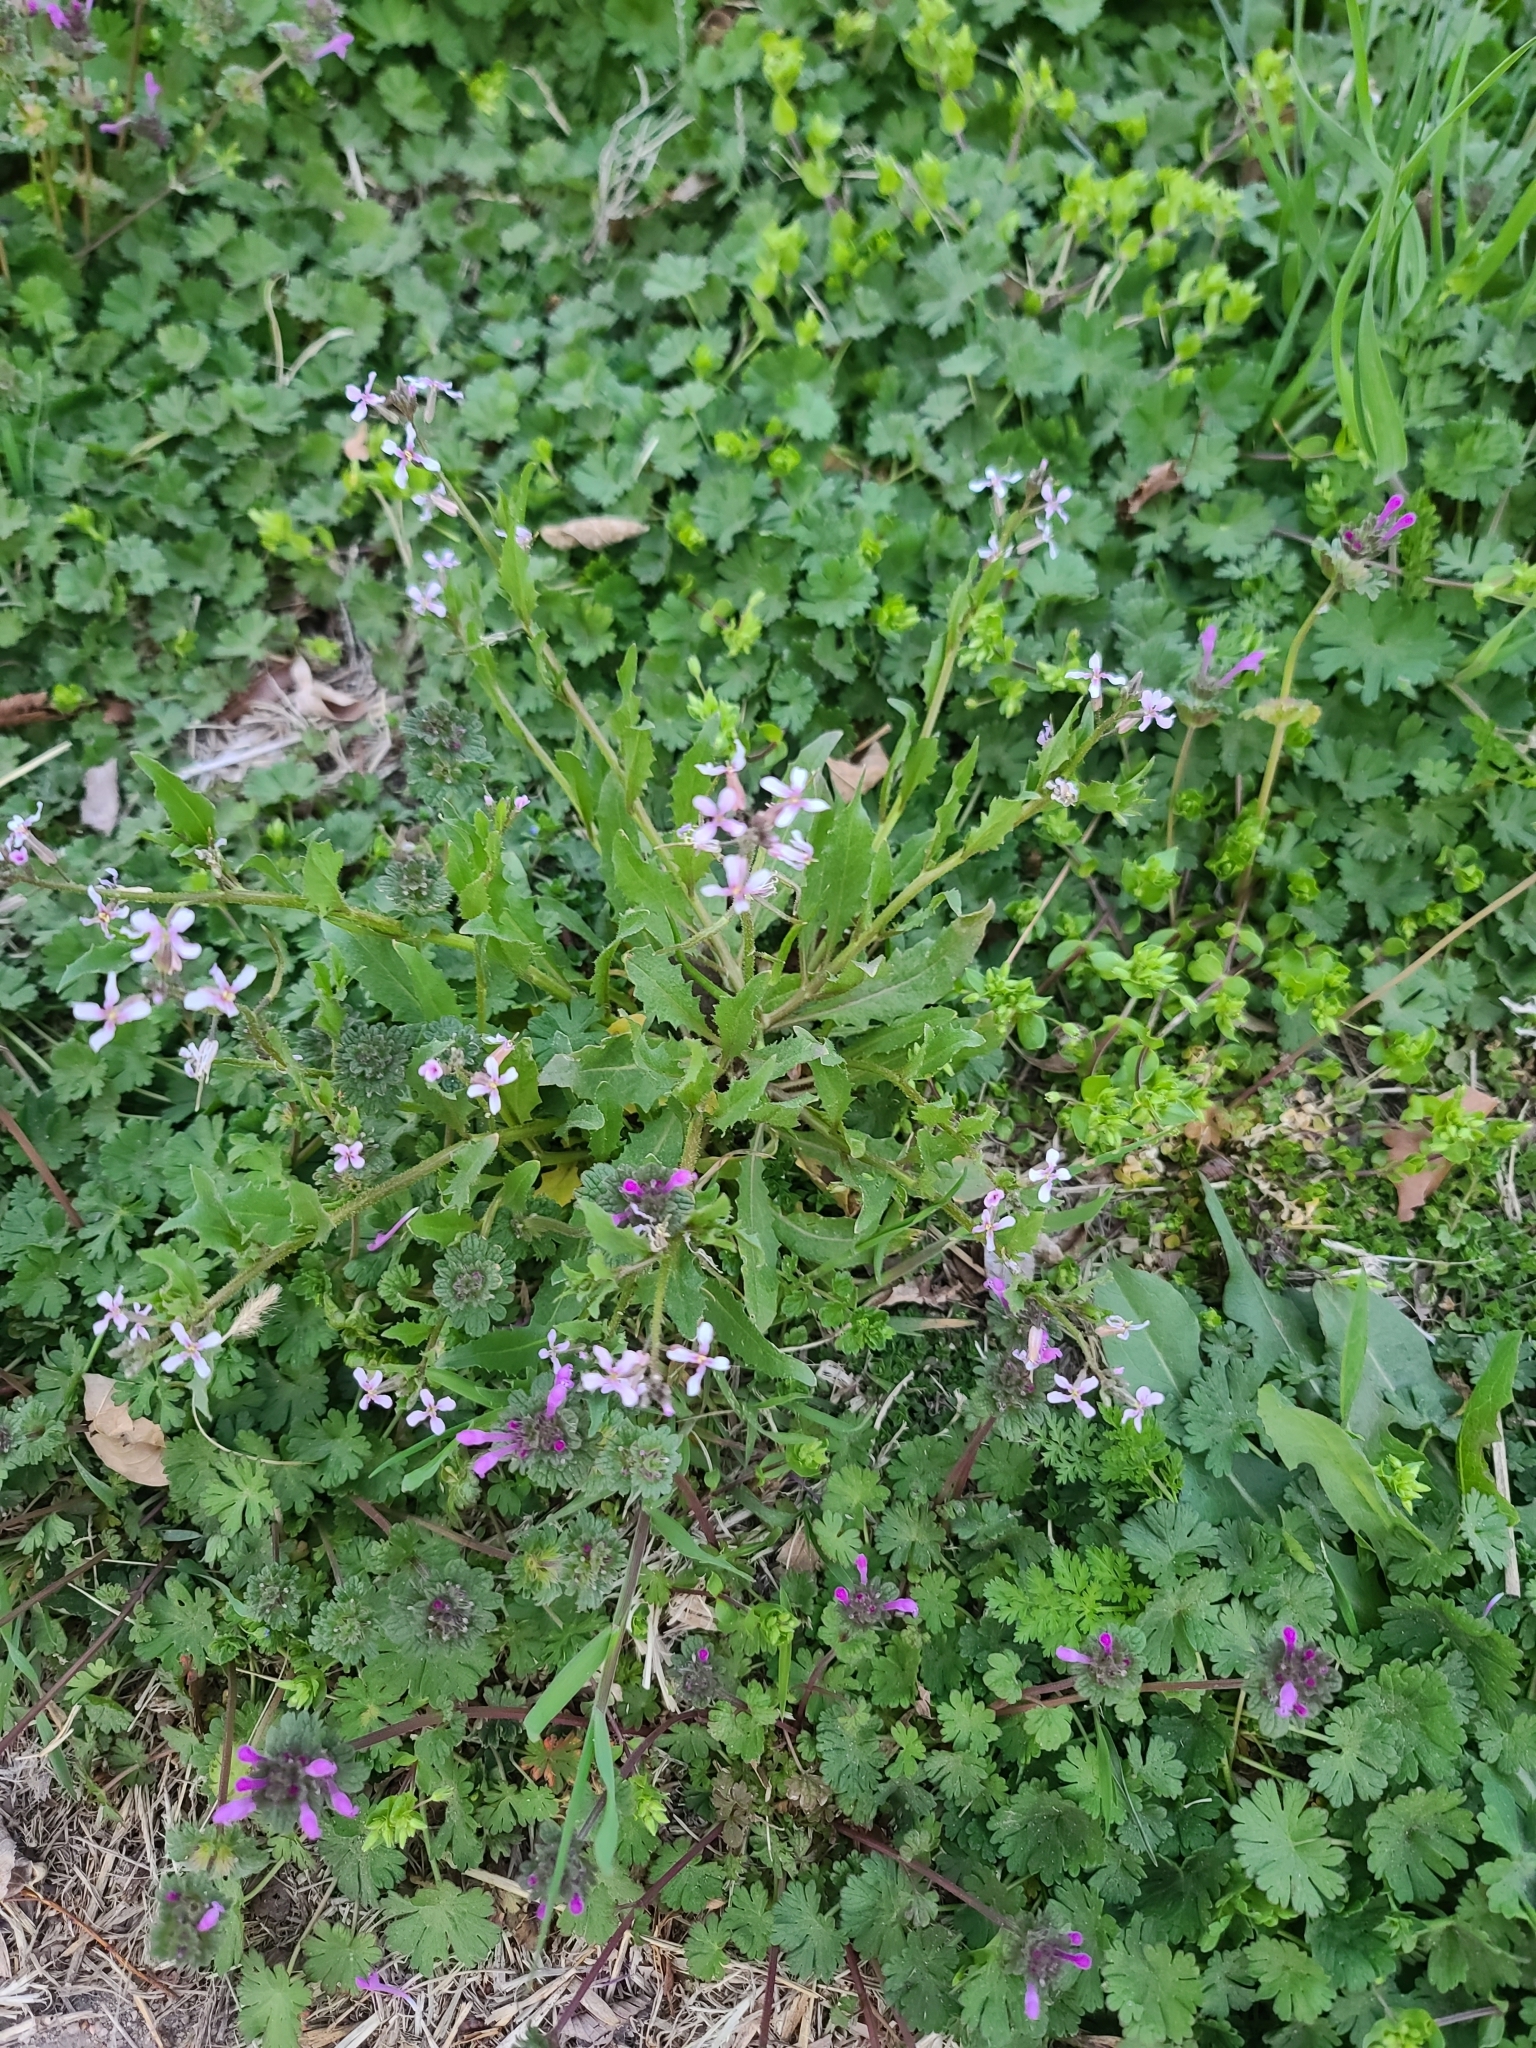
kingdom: Plantae
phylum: Tracheophyta
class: Magnoliopsida
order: Brassicales
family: Brassicaceae
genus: Chorispora
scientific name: Chorispora tenella
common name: Crossflower
